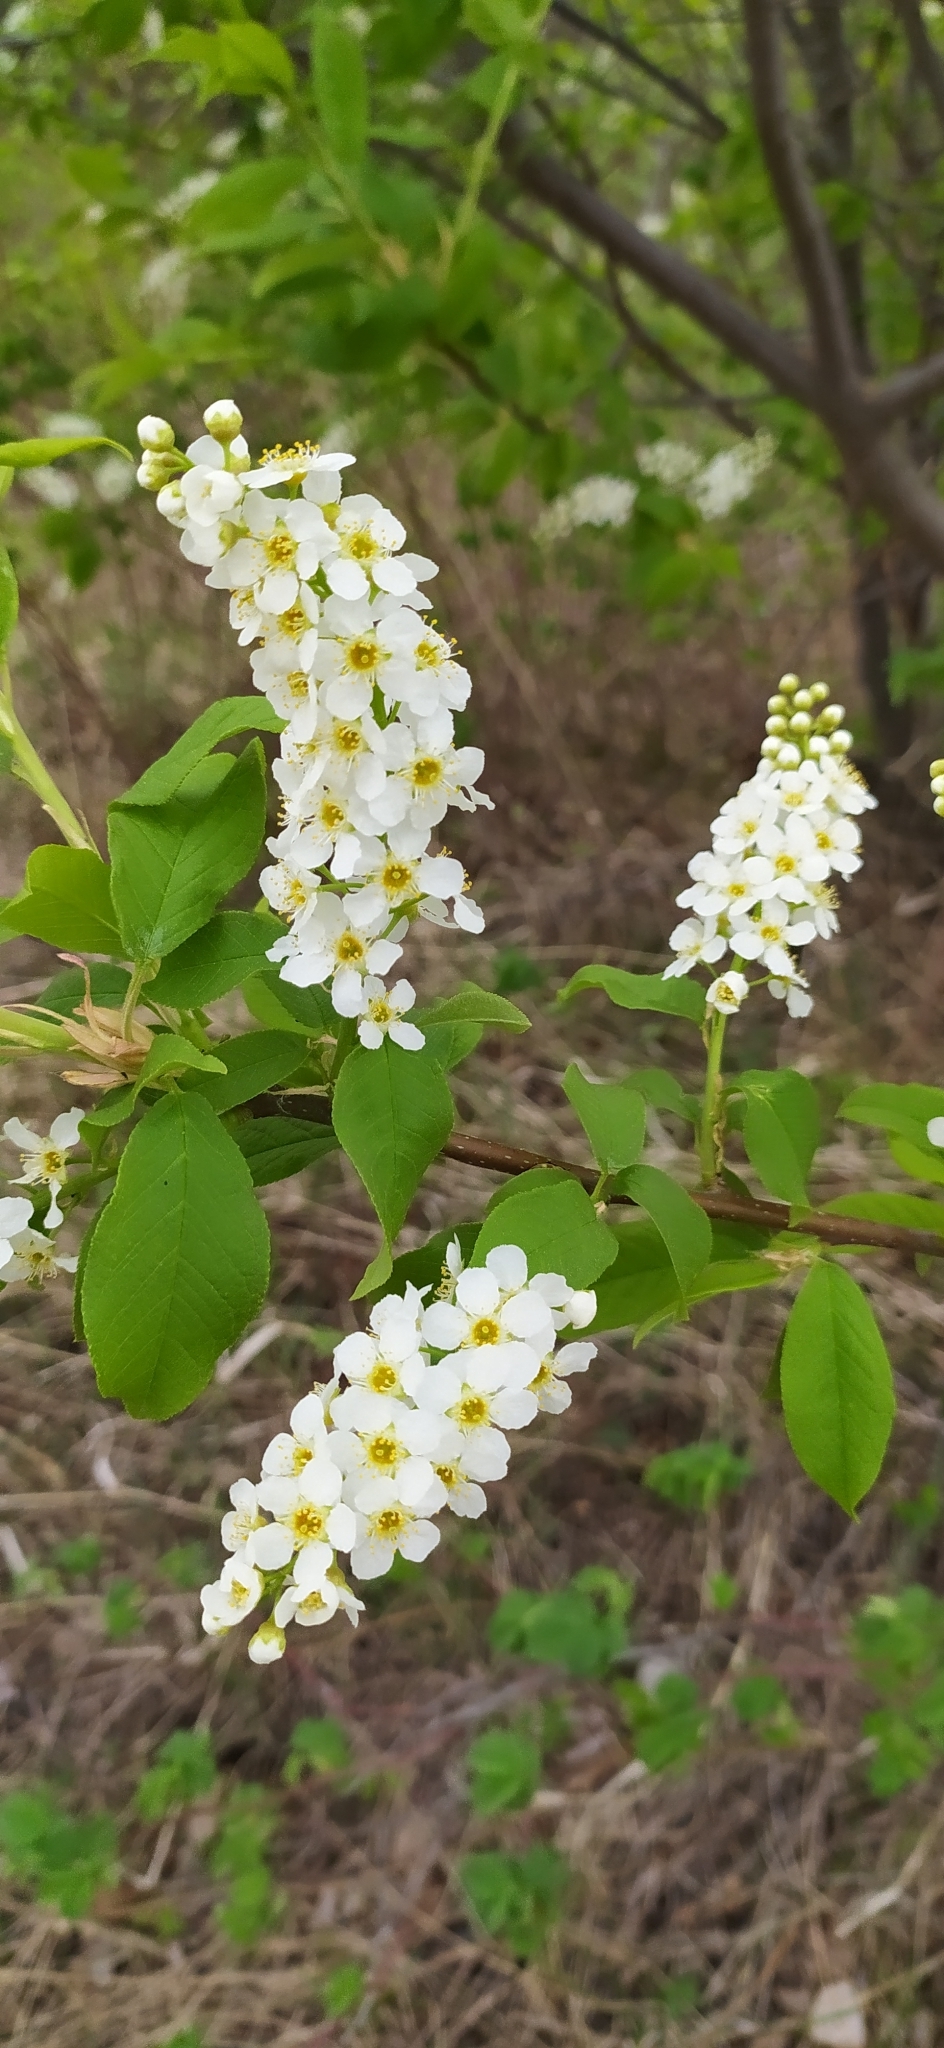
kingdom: Plantae
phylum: Tracheophyta
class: Magnoliopsida
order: Rosales
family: Rosaceae
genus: Prunus
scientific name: Prunus padus
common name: Bird cherry
